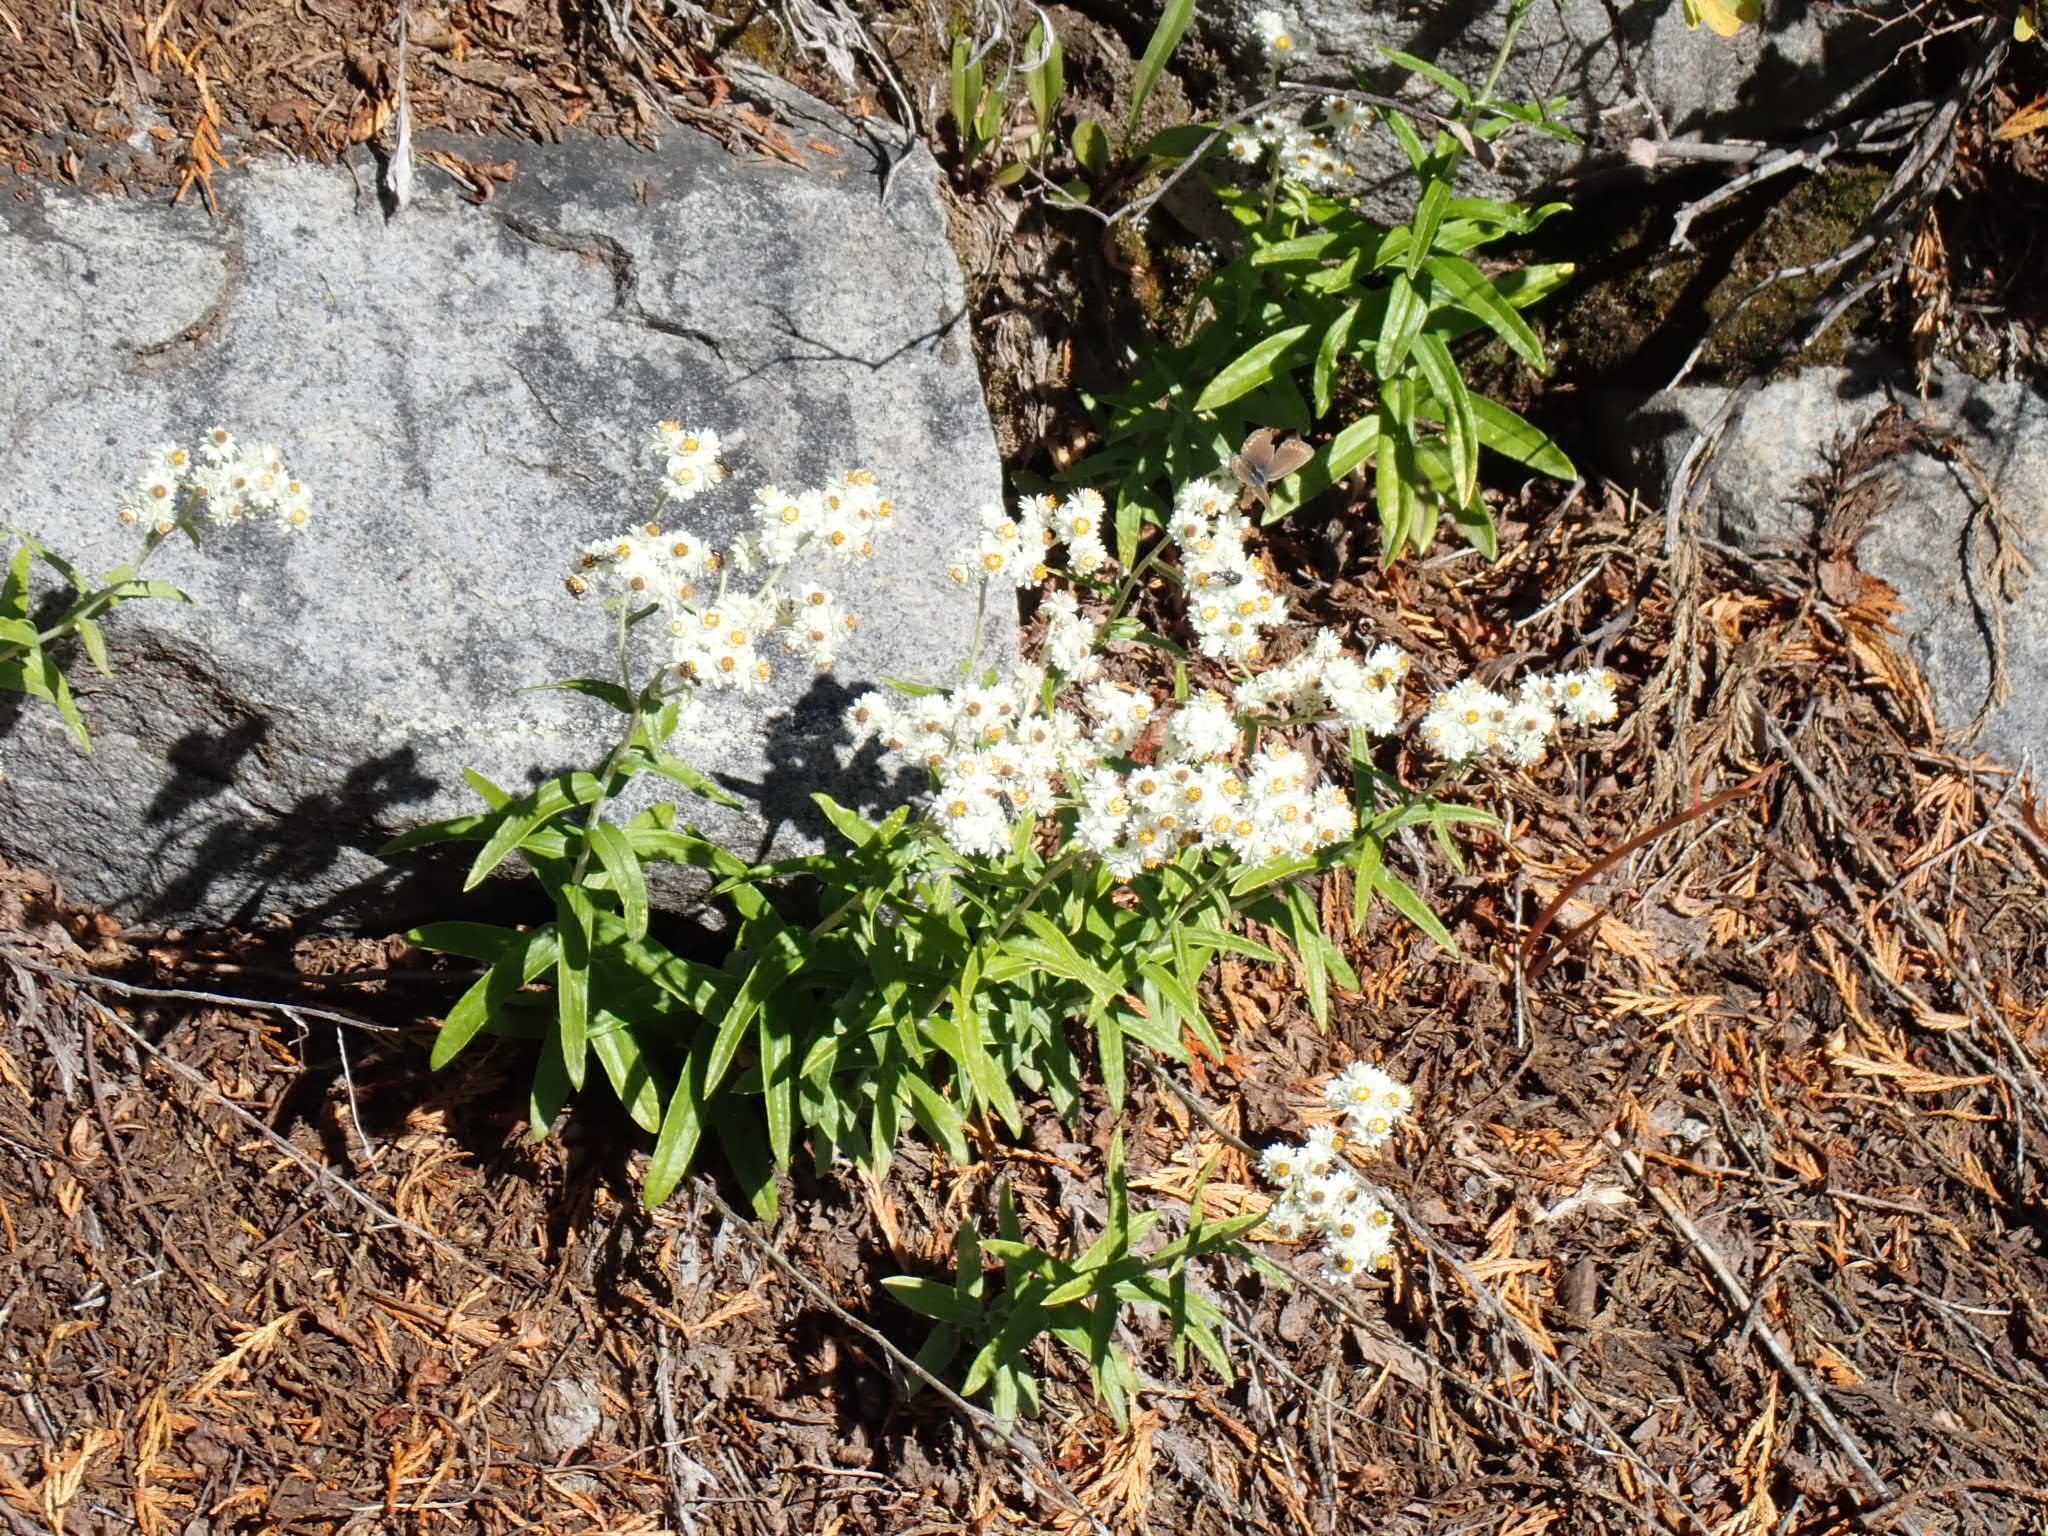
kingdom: Plantae
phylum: Tracheophyta
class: Magnoliopsida
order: Asterales
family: Asteraceae
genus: Anaphalis
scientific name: Anaphalis margaritacea
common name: Pearly everlasting
